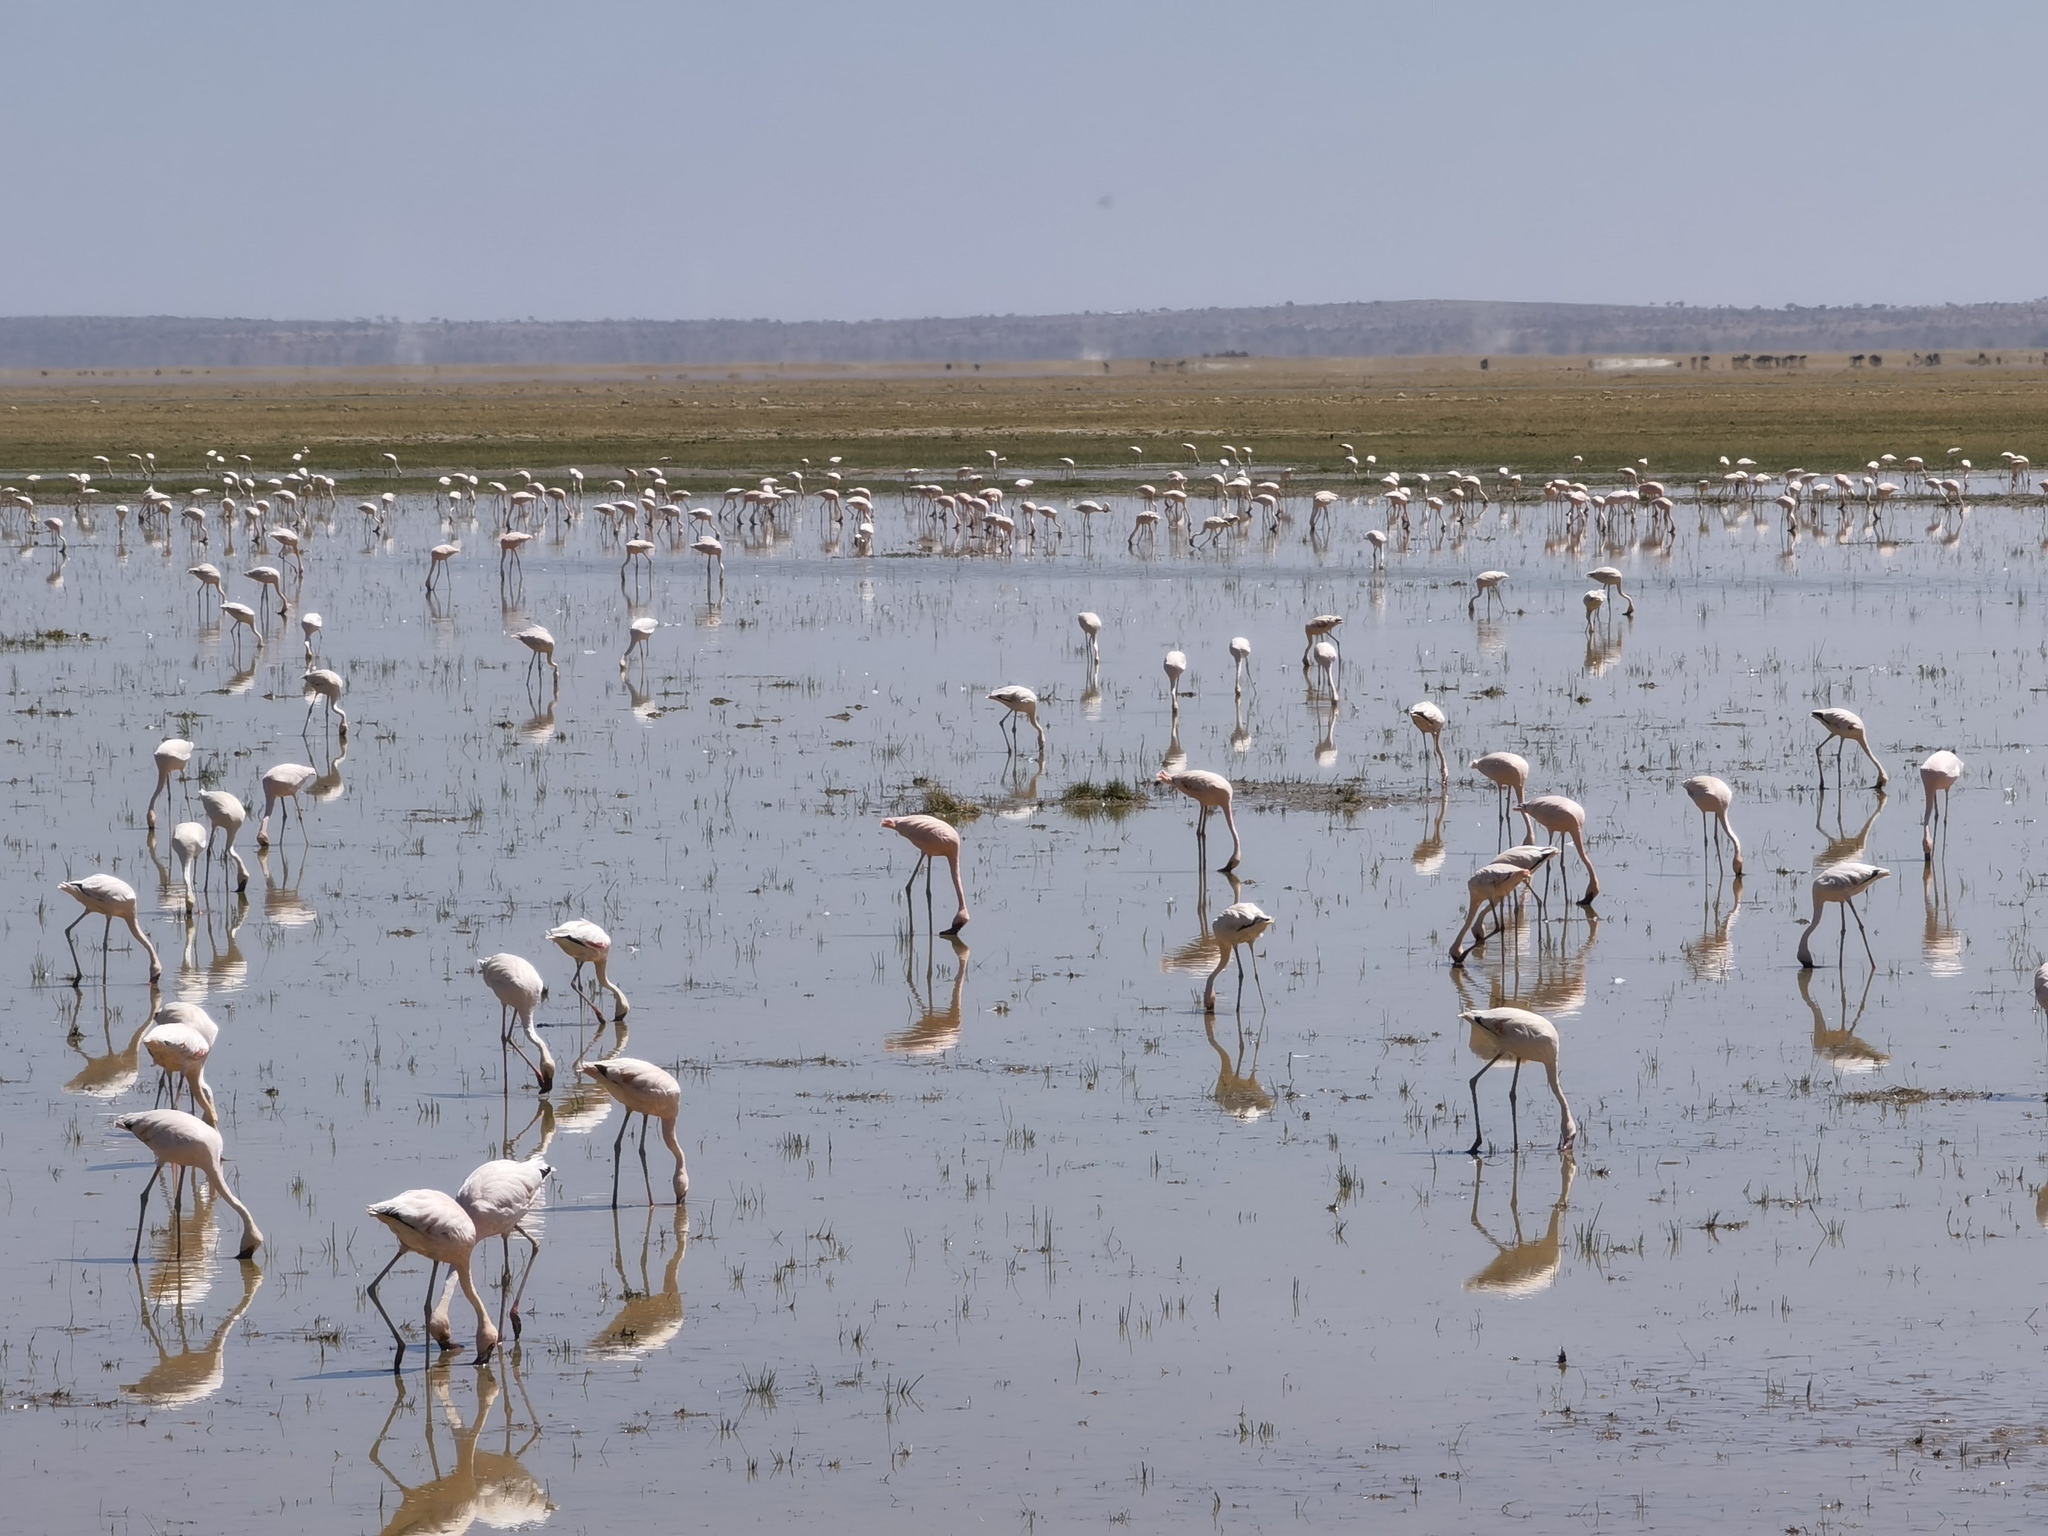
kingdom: Animalia
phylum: Chordata
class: Aves
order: Phoenicopteriformes
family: Phoenicopteridae
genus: Phoeniconaias
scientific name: Phoeniconaias minor
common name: Lesser flamingo
